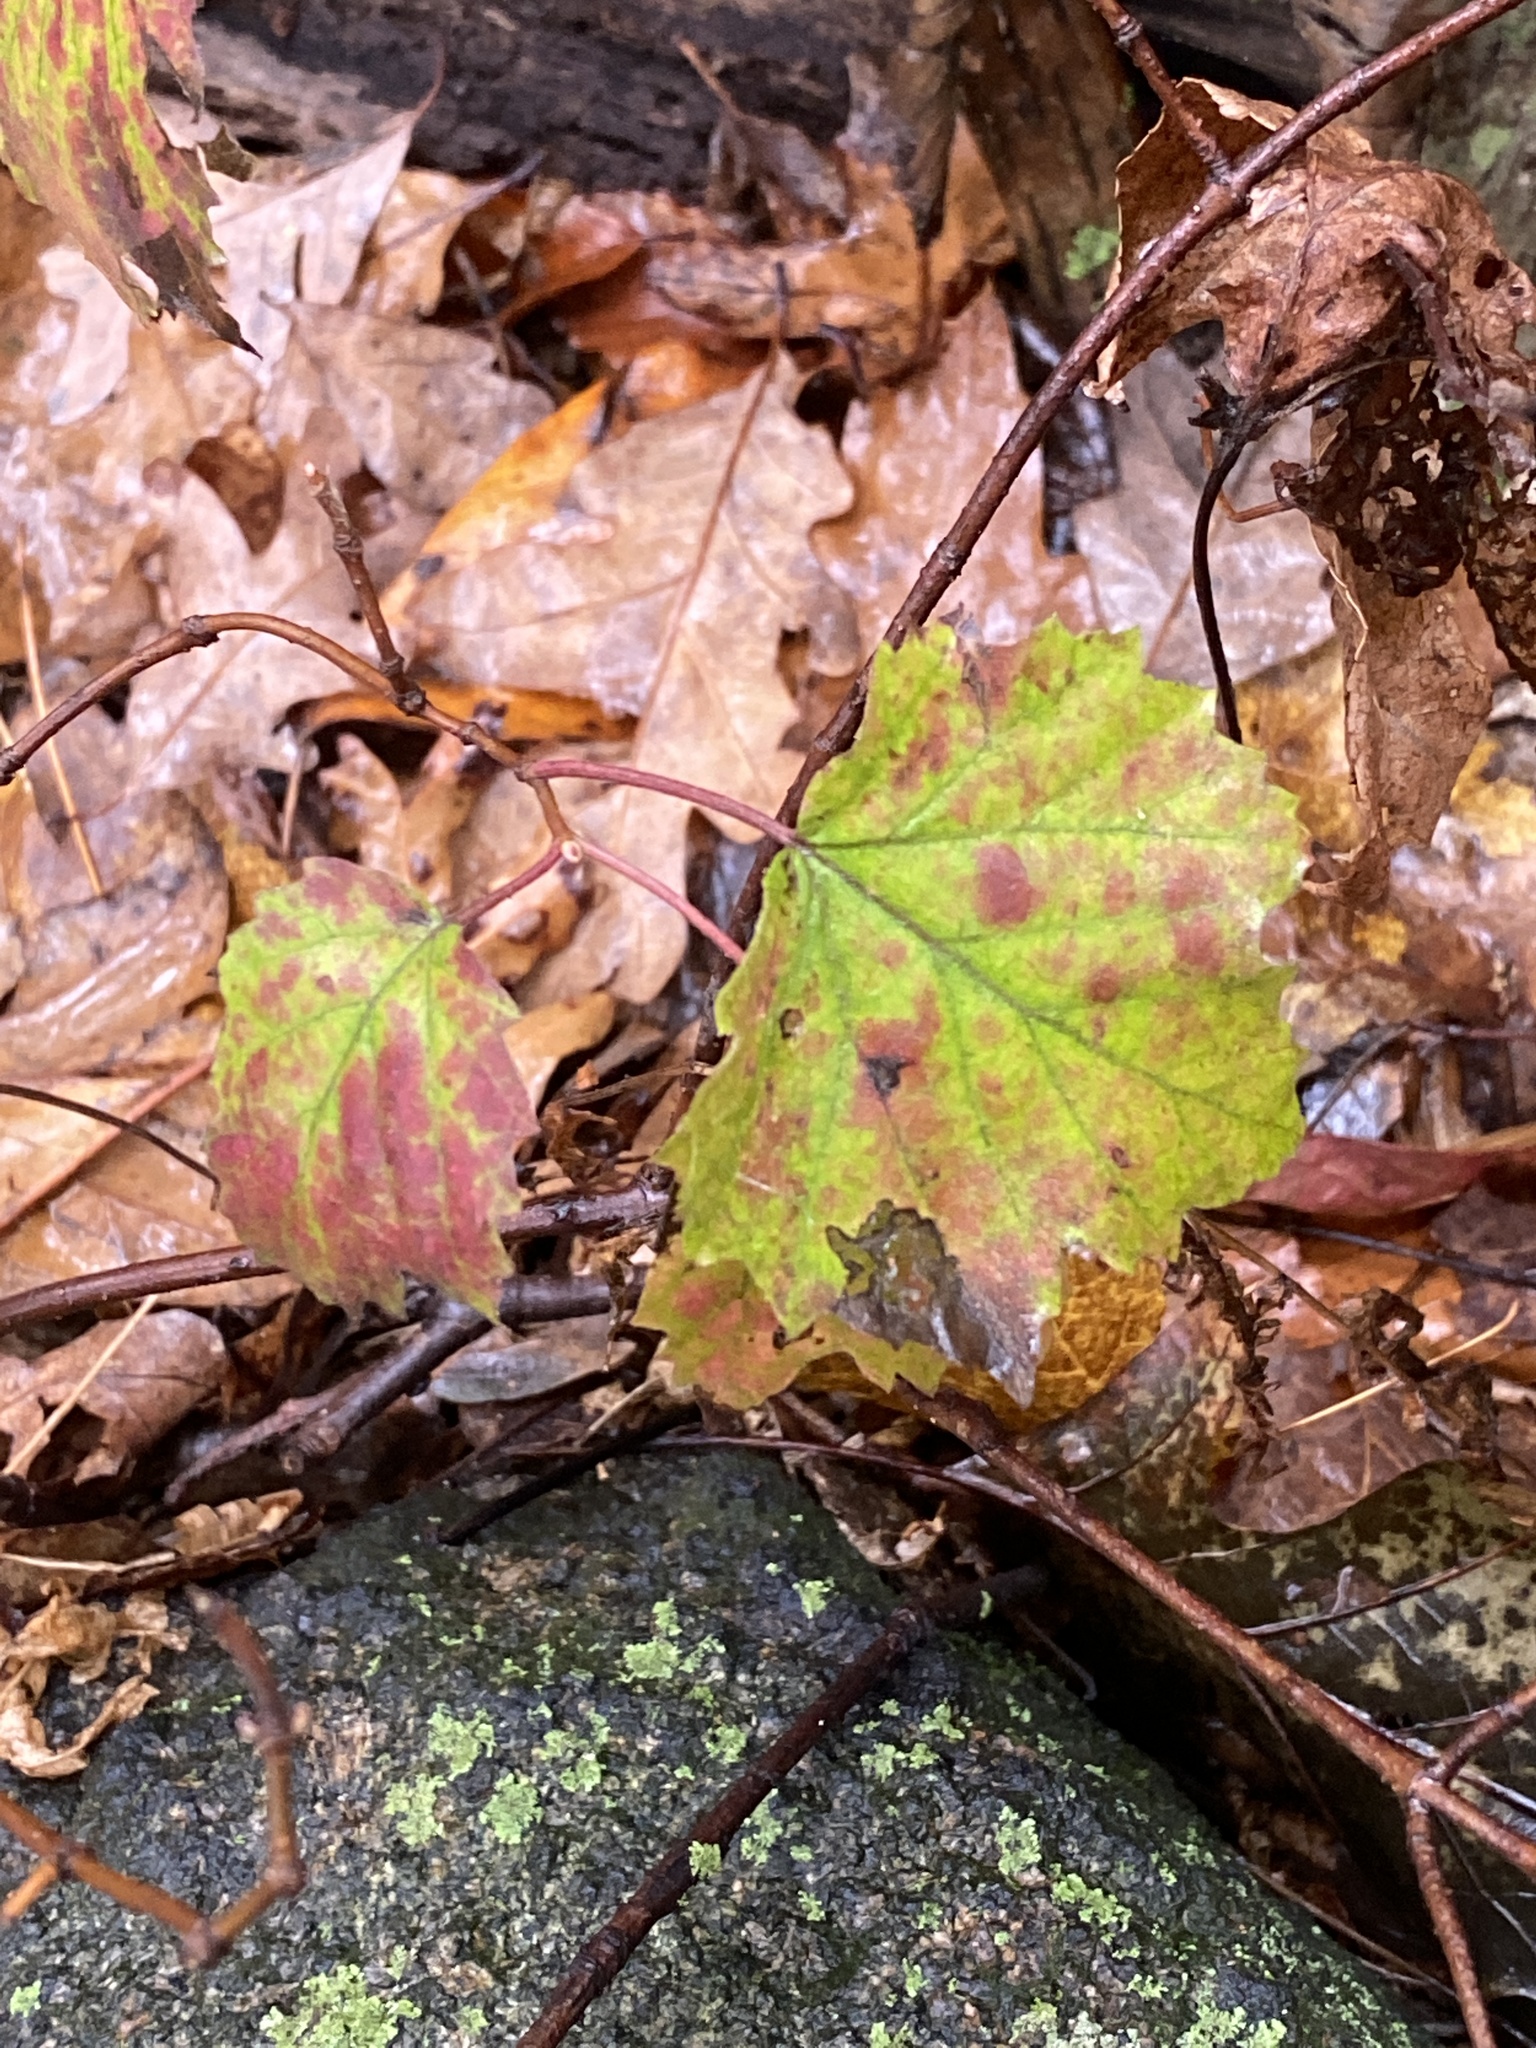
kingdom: Plantae
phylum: Tracheophyta
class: Magnoliopsida
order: Dipsacales
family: Viburnaceae
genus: Viburnum
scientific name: Viburnum acerifolium
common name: Dockmackie
